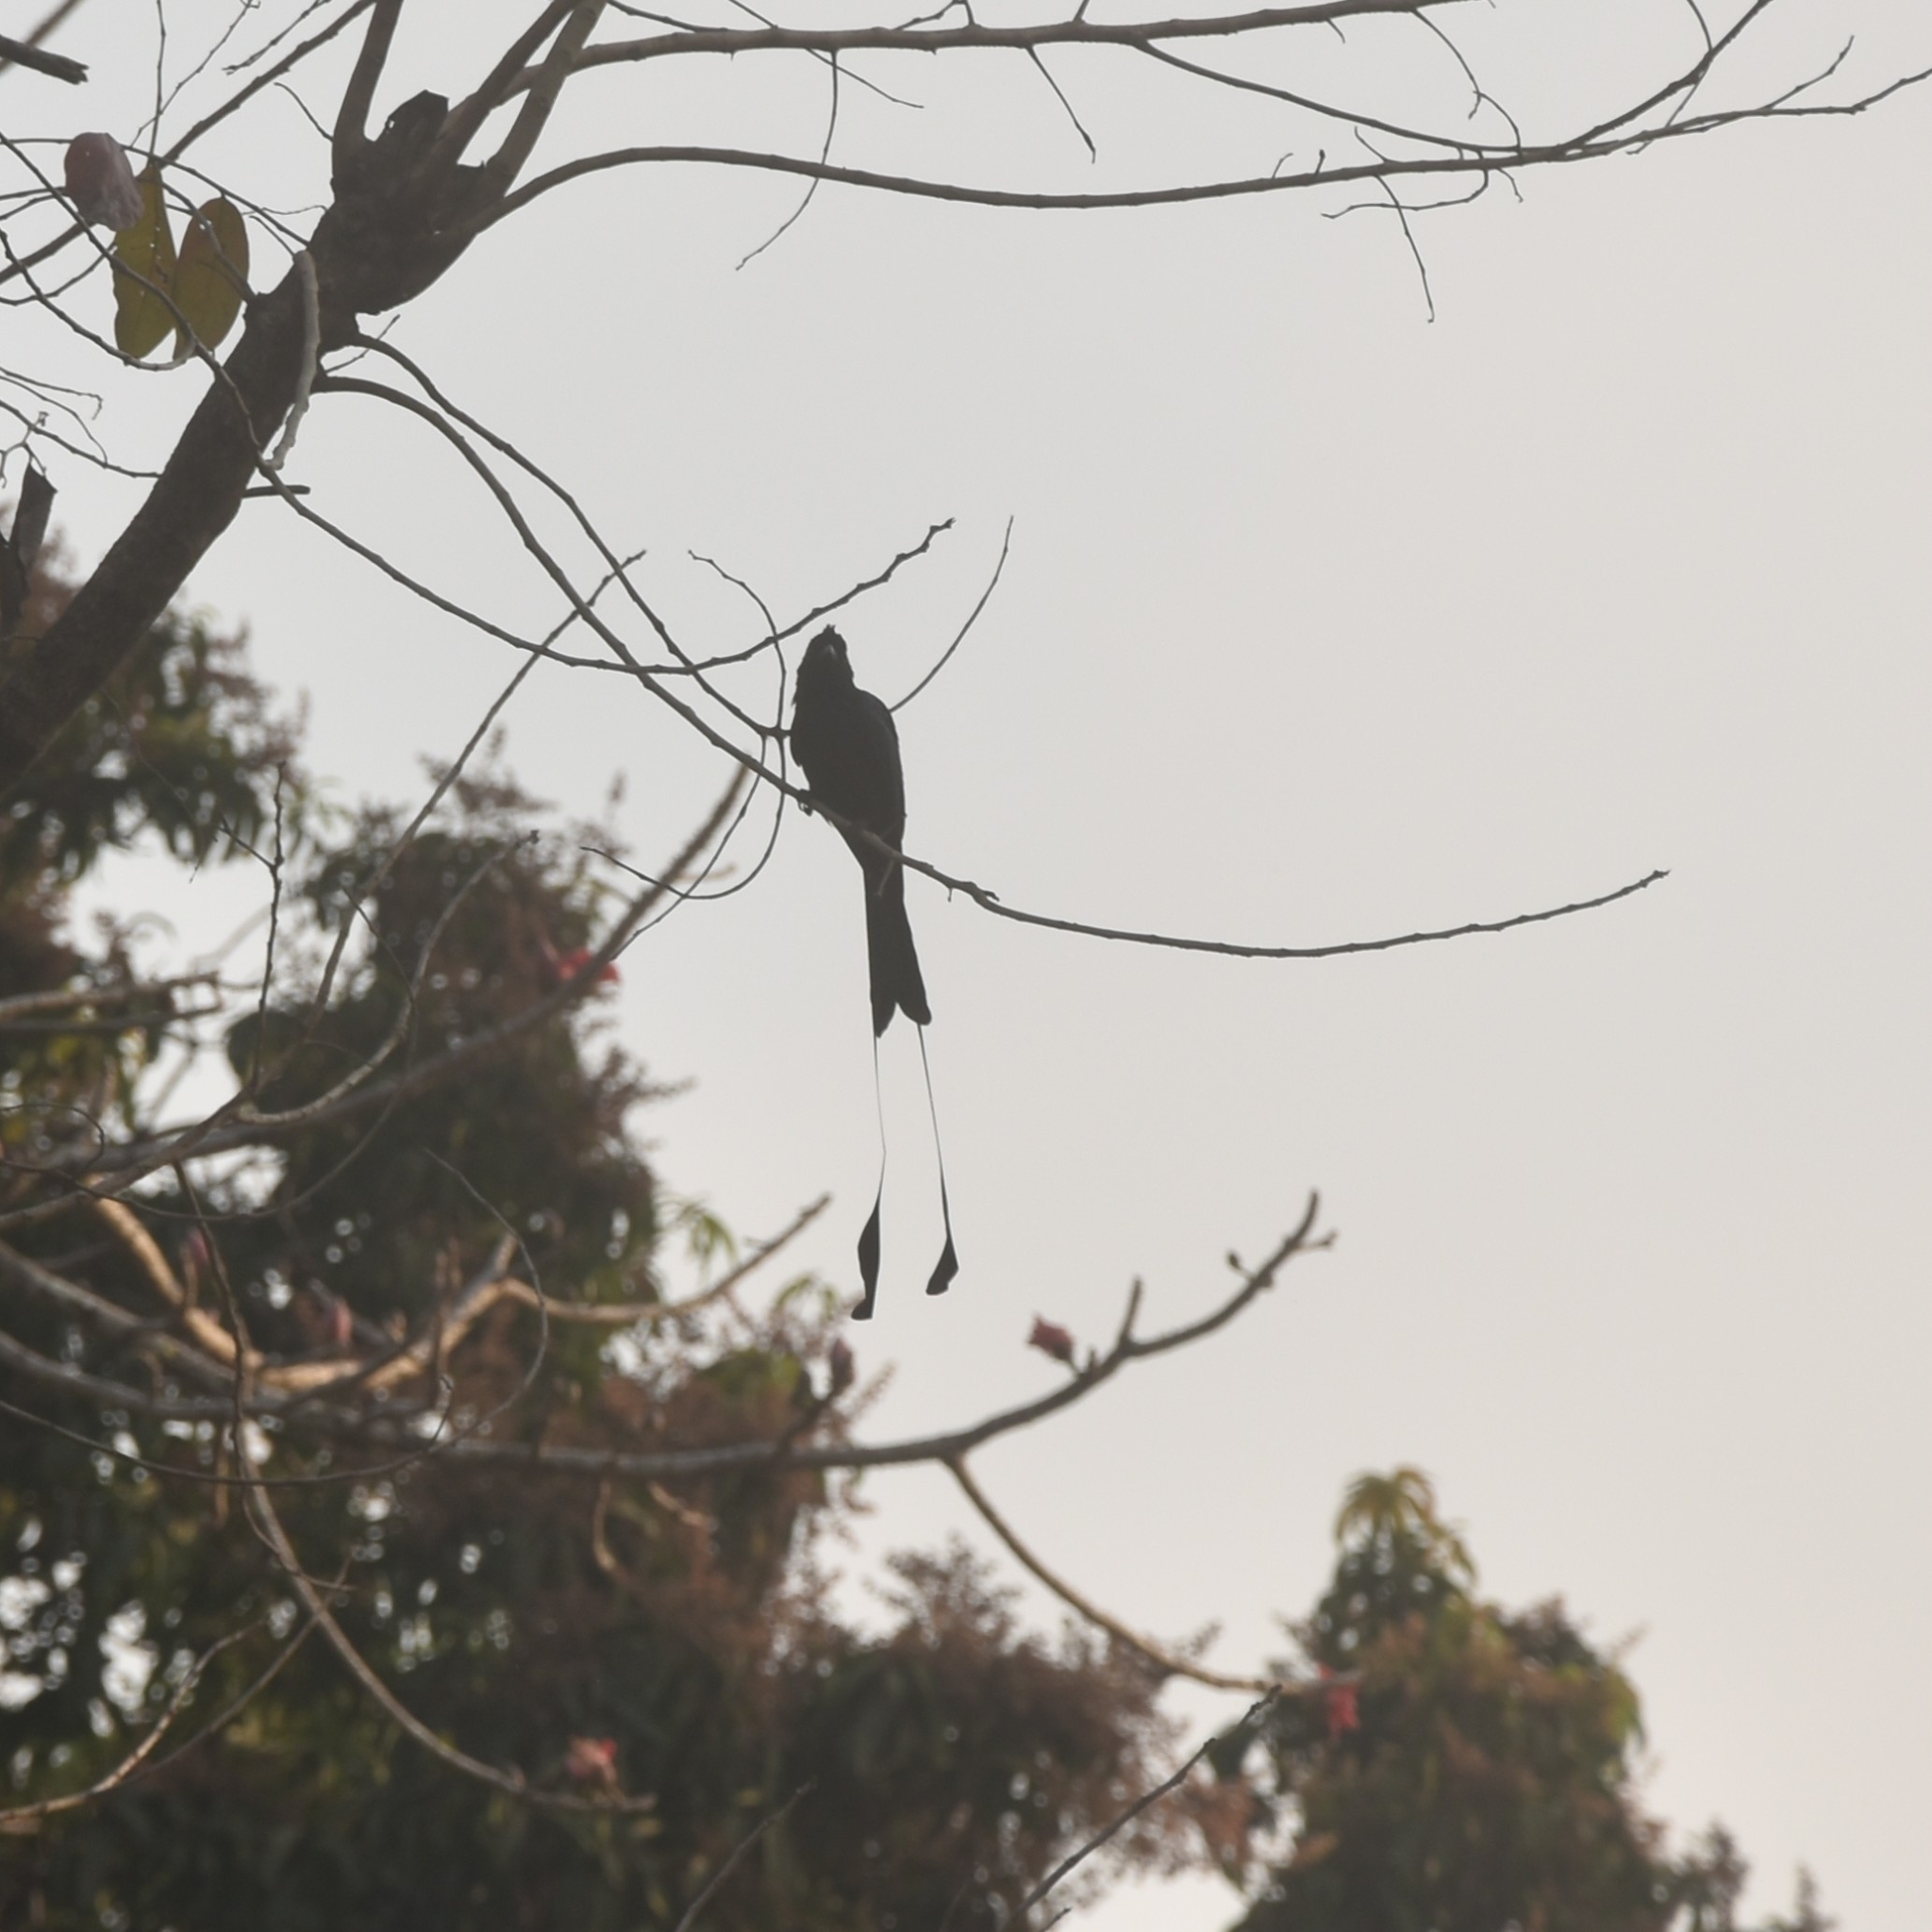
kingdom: Animalia
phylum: Chordata
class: Aves
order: Passeriformes
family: Dicruridae
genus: Dicrurus
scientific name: Dicrurus paradiseus
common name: Greater racket-tailed drongo
